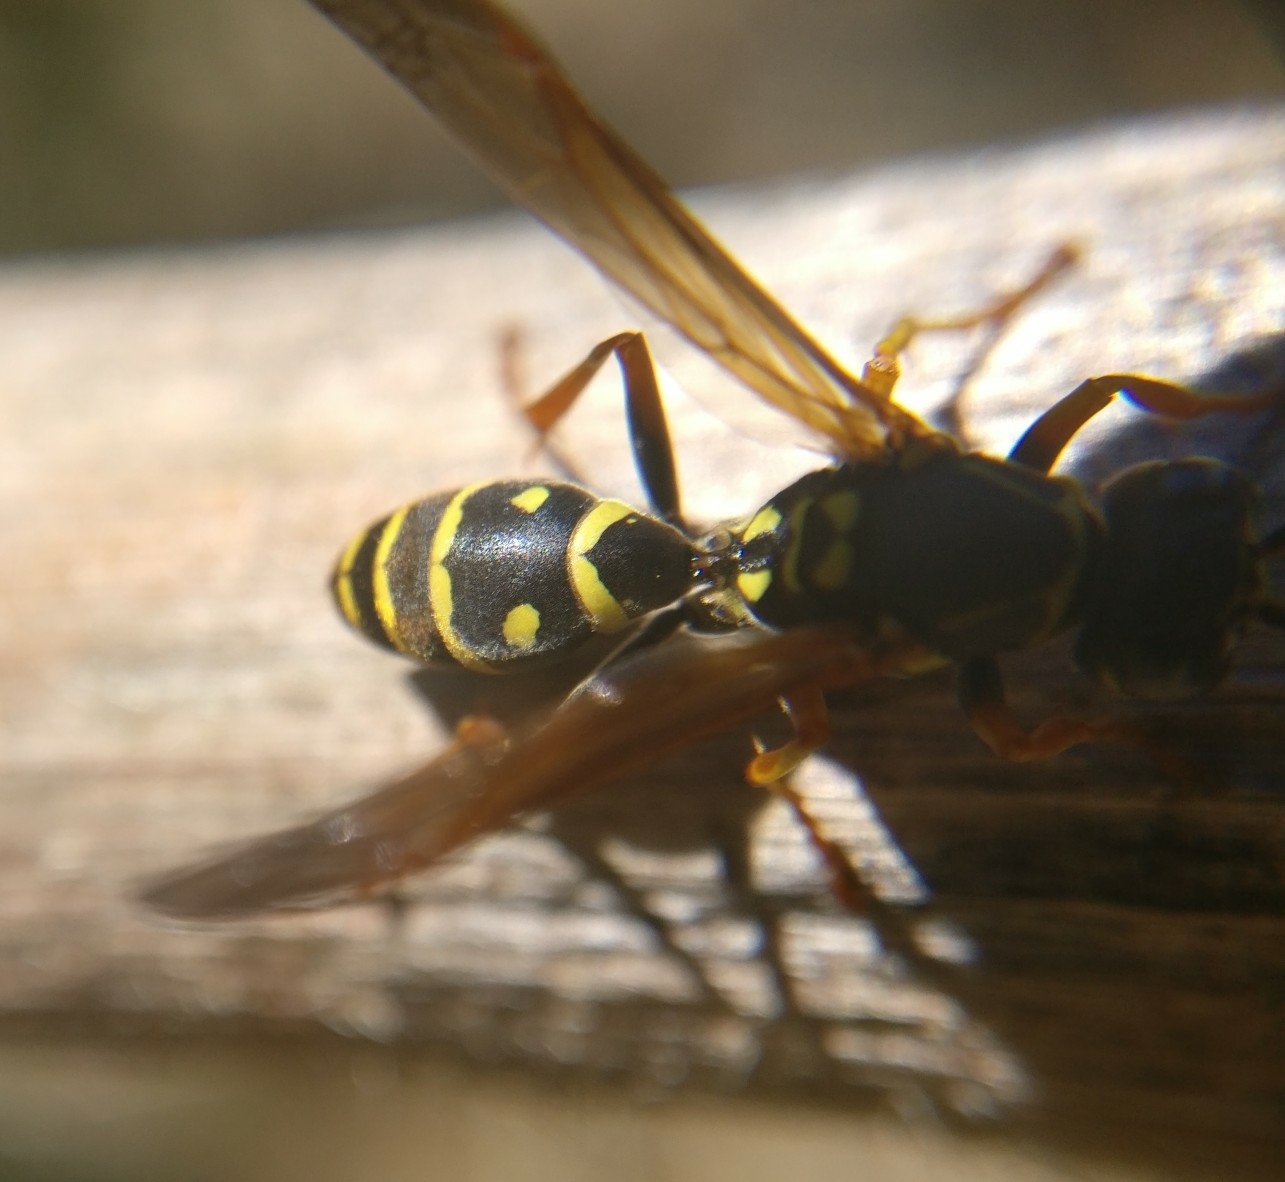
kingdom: Animalia
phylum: Arthropoda
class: Insecta
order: Hymenoptera
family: Eumenidae
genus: Polistes
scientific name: Polistes chinensis
